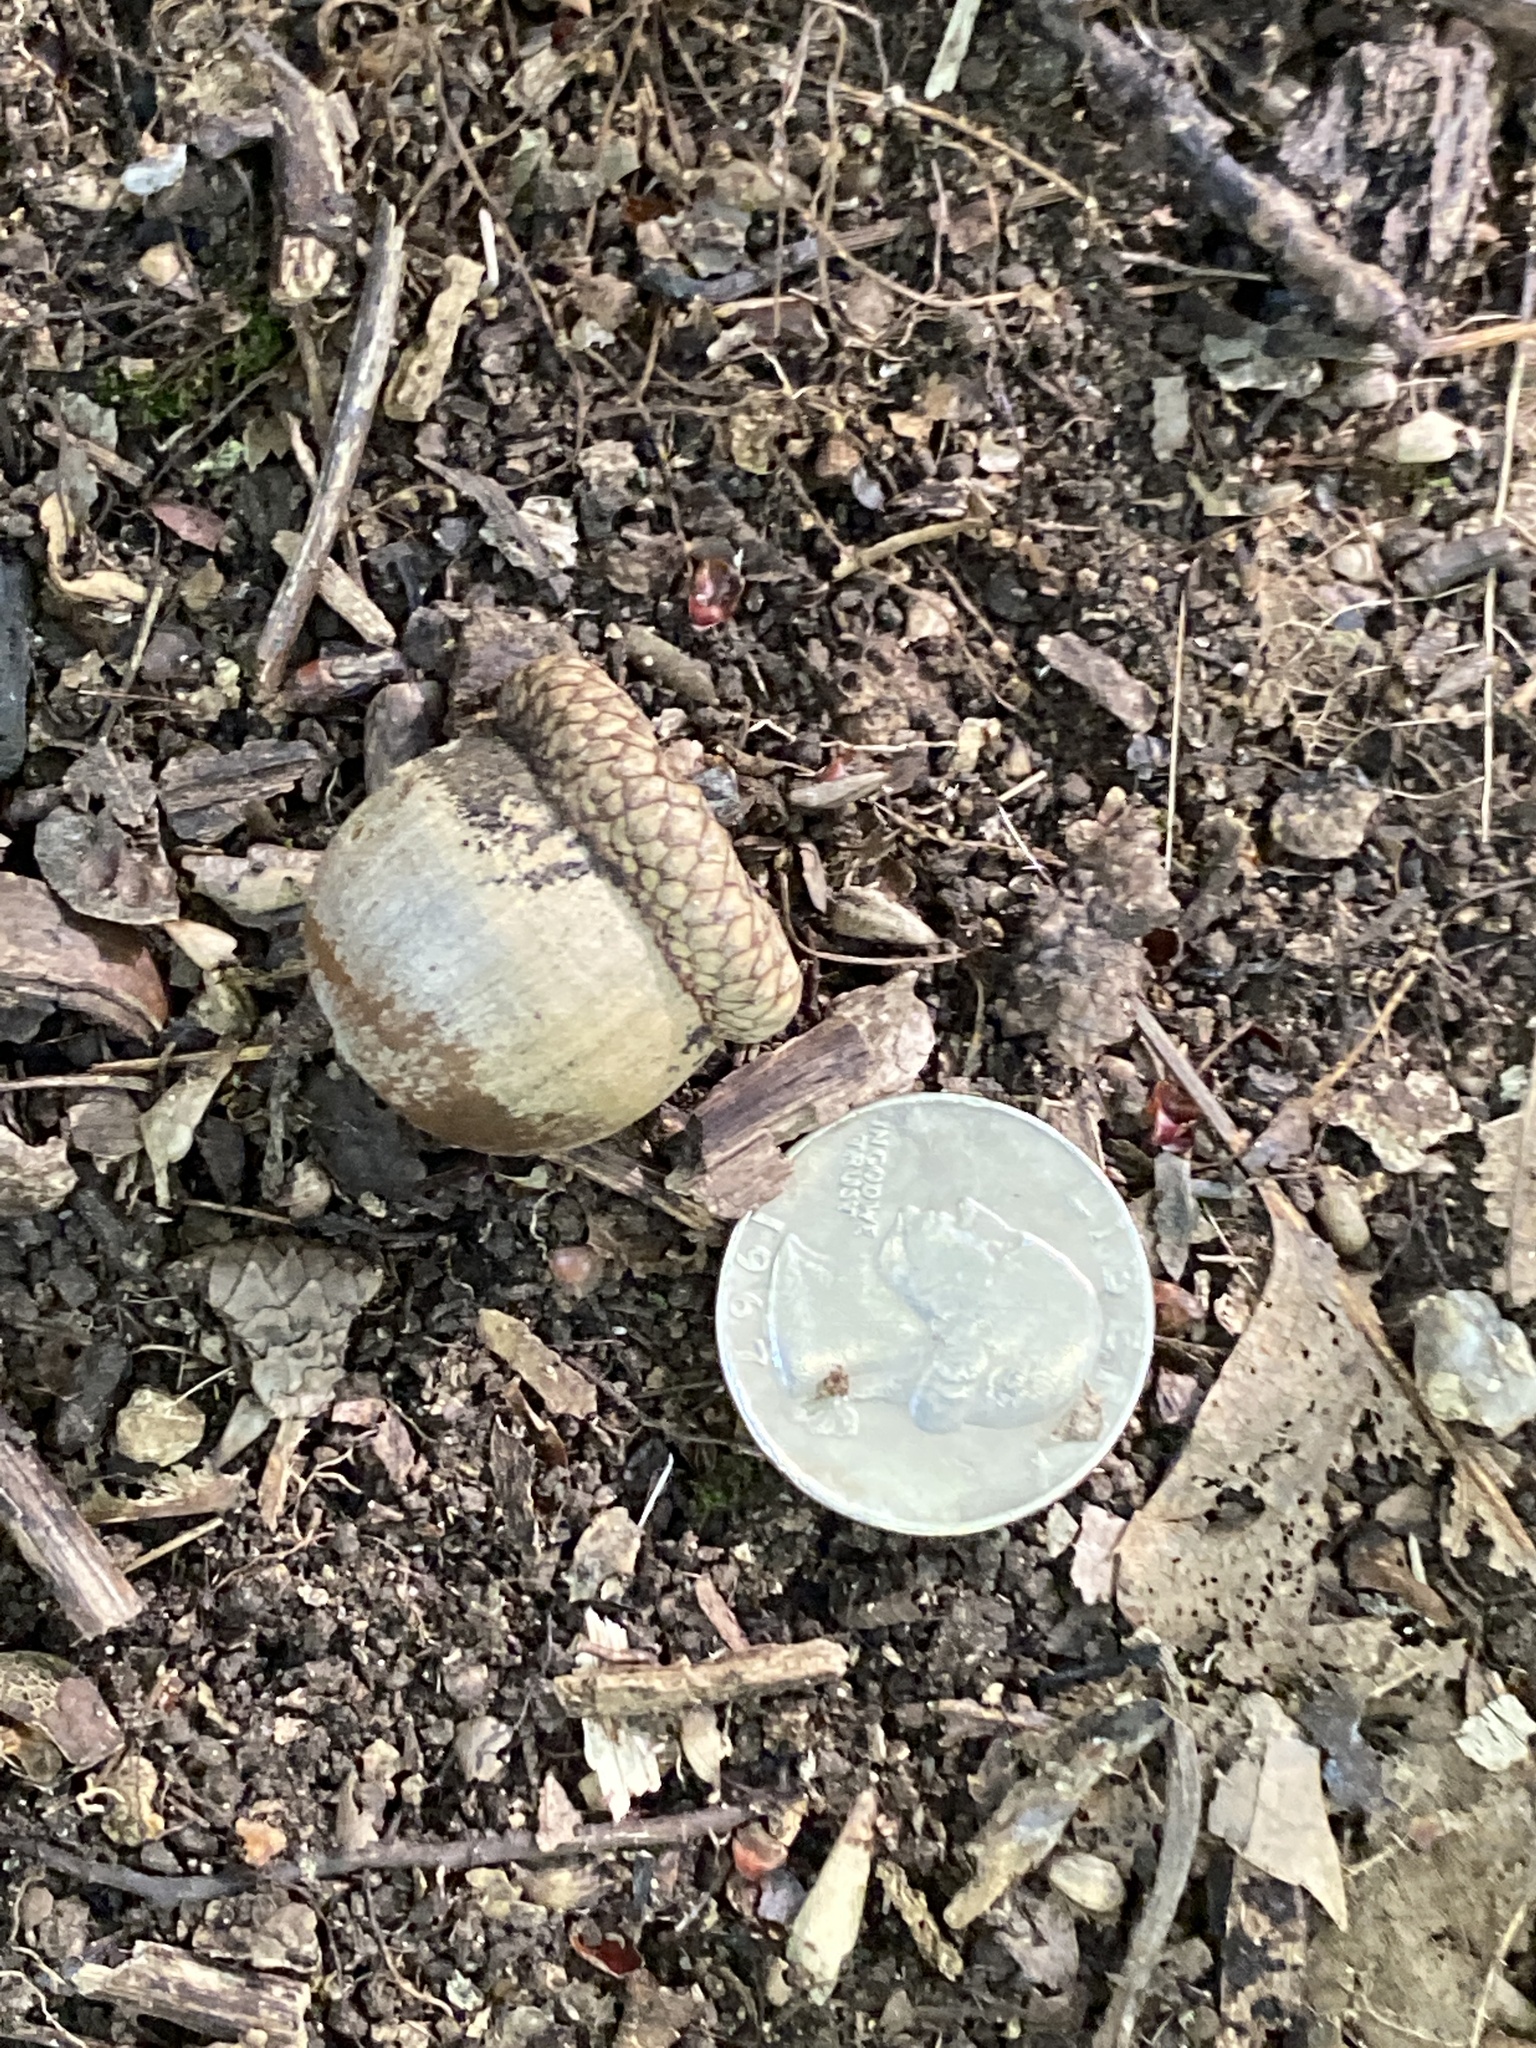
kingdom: Plantae
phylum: Tracheophyta
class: Magnoliopsida
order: Fagales
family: Fagaceae
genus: Quercus
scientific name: Quercus rubra
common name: Red oak
